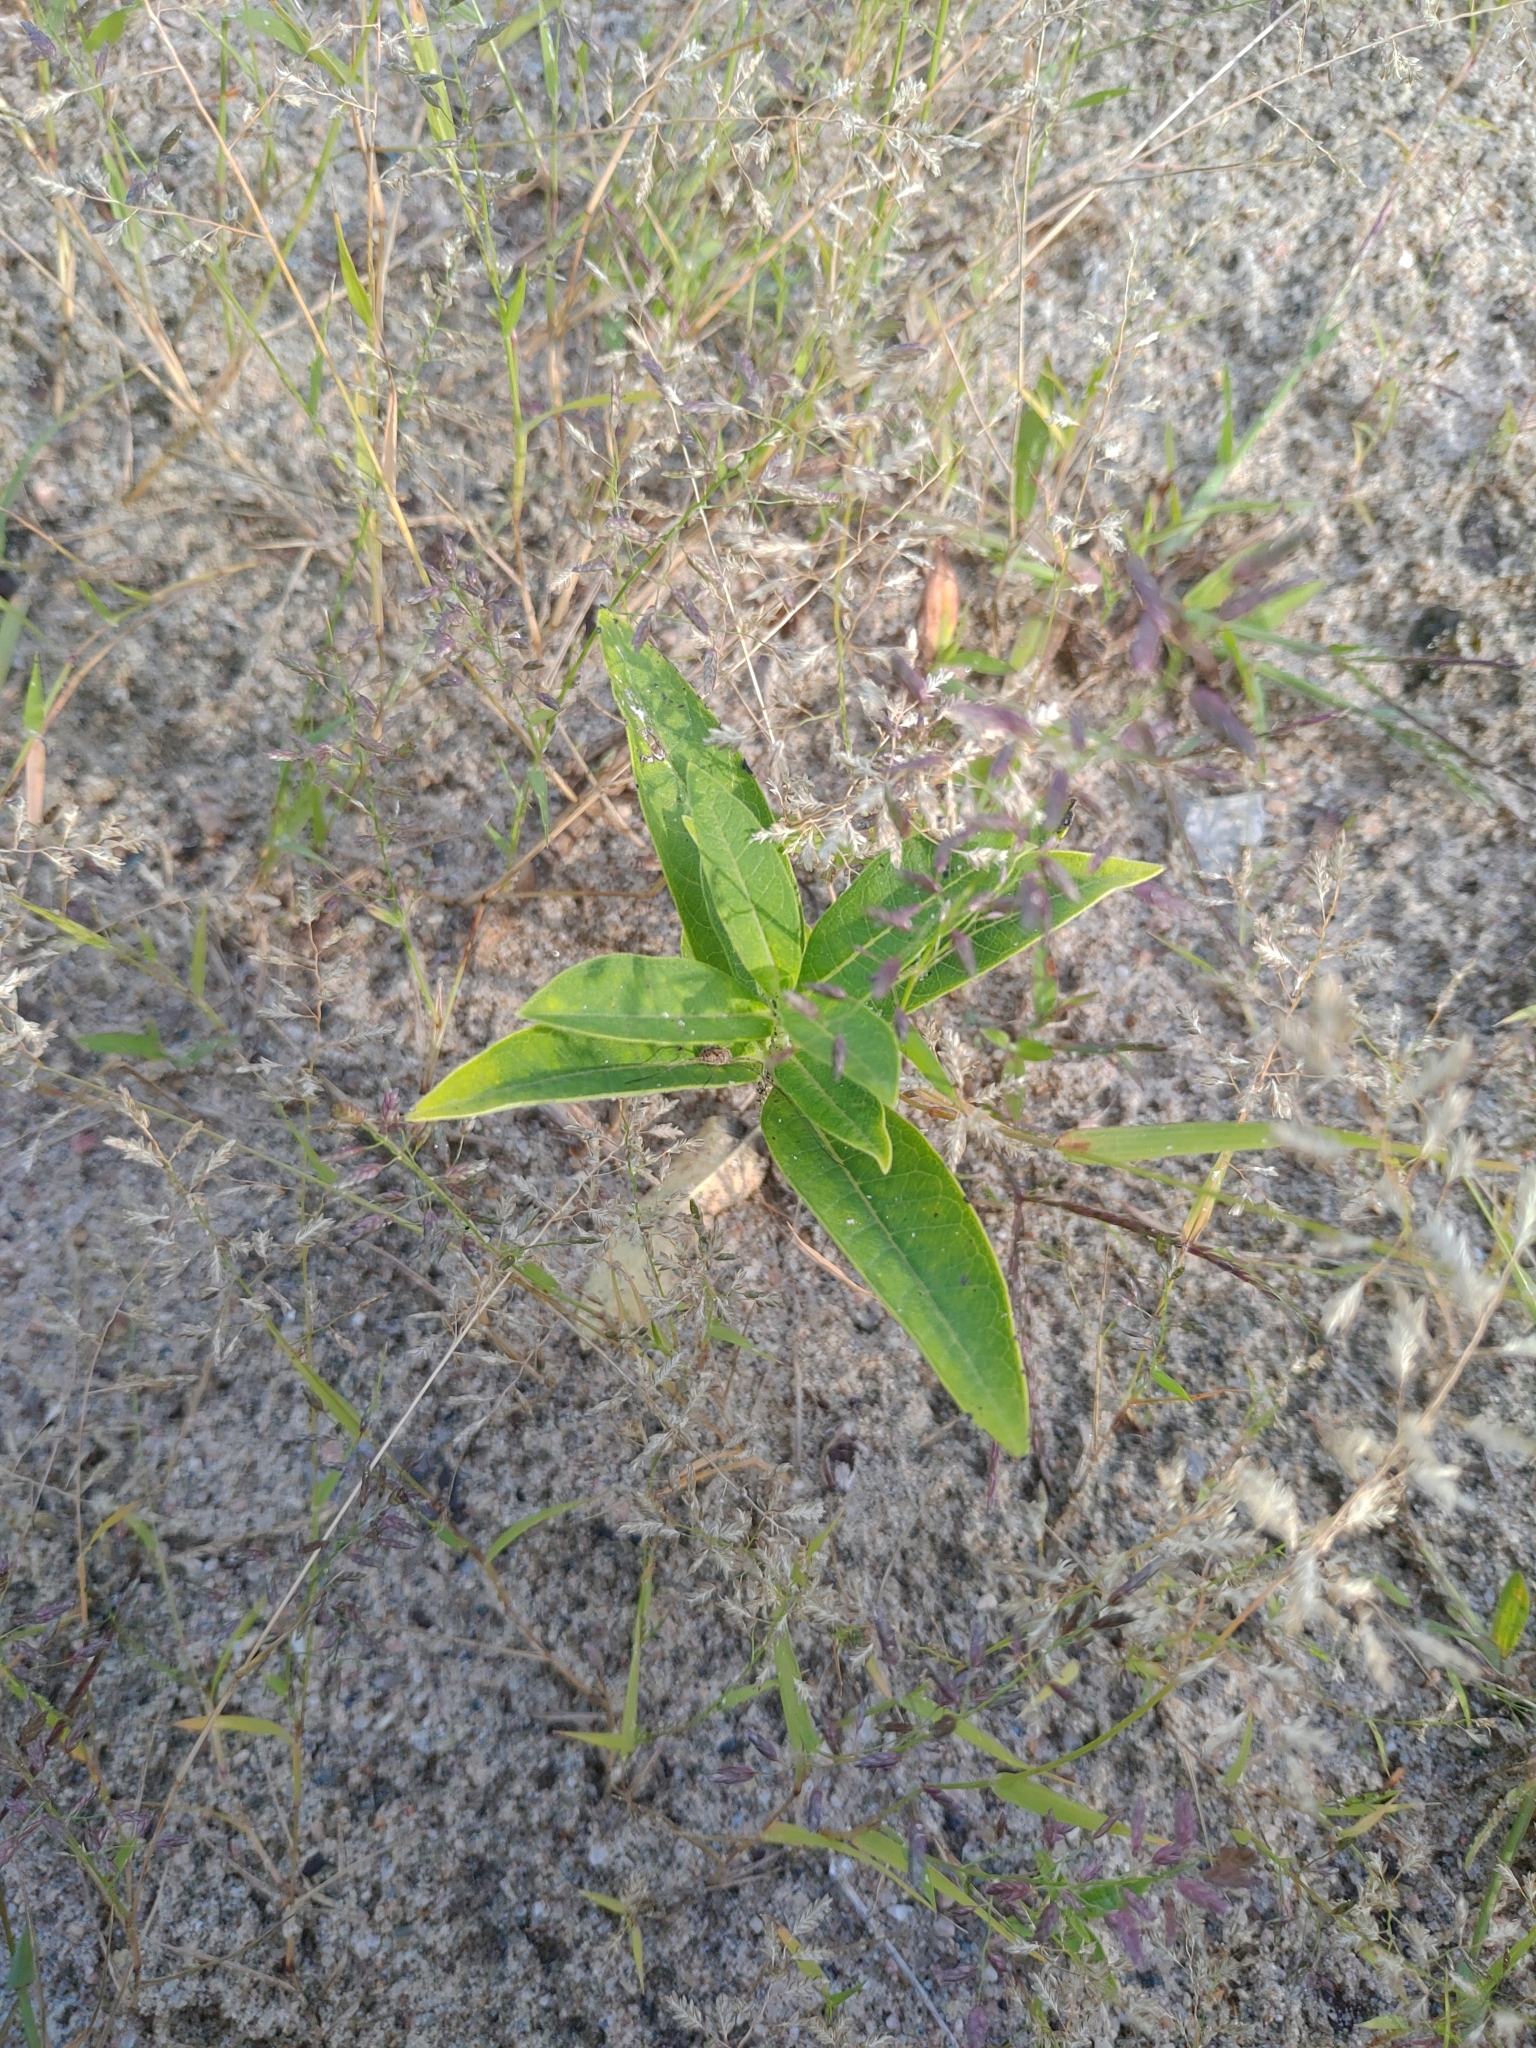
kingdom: Plantae
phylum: Tracheophyta
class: Magnoliopsida
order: Gentianales
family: Apocynaceae
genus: Asclepias
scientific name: Asclepias syriaca
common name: Common milkweed
